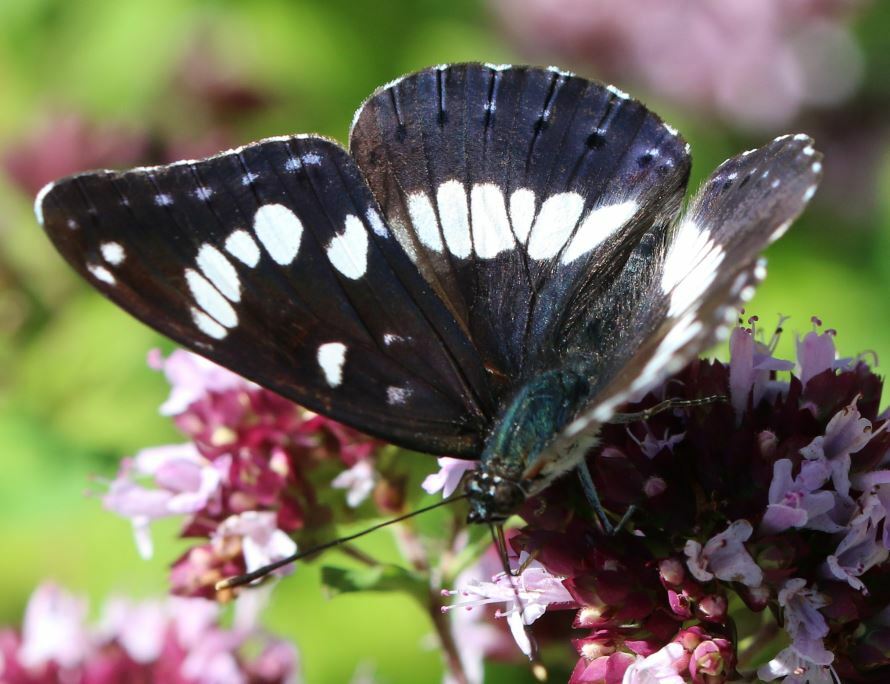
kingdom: Animalia
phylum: Arthropoda
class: Insecta
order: Lepidoptera
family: Nymphalidae
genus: Limenitis
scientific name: Limenitis reducta
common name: Southern white admiral
